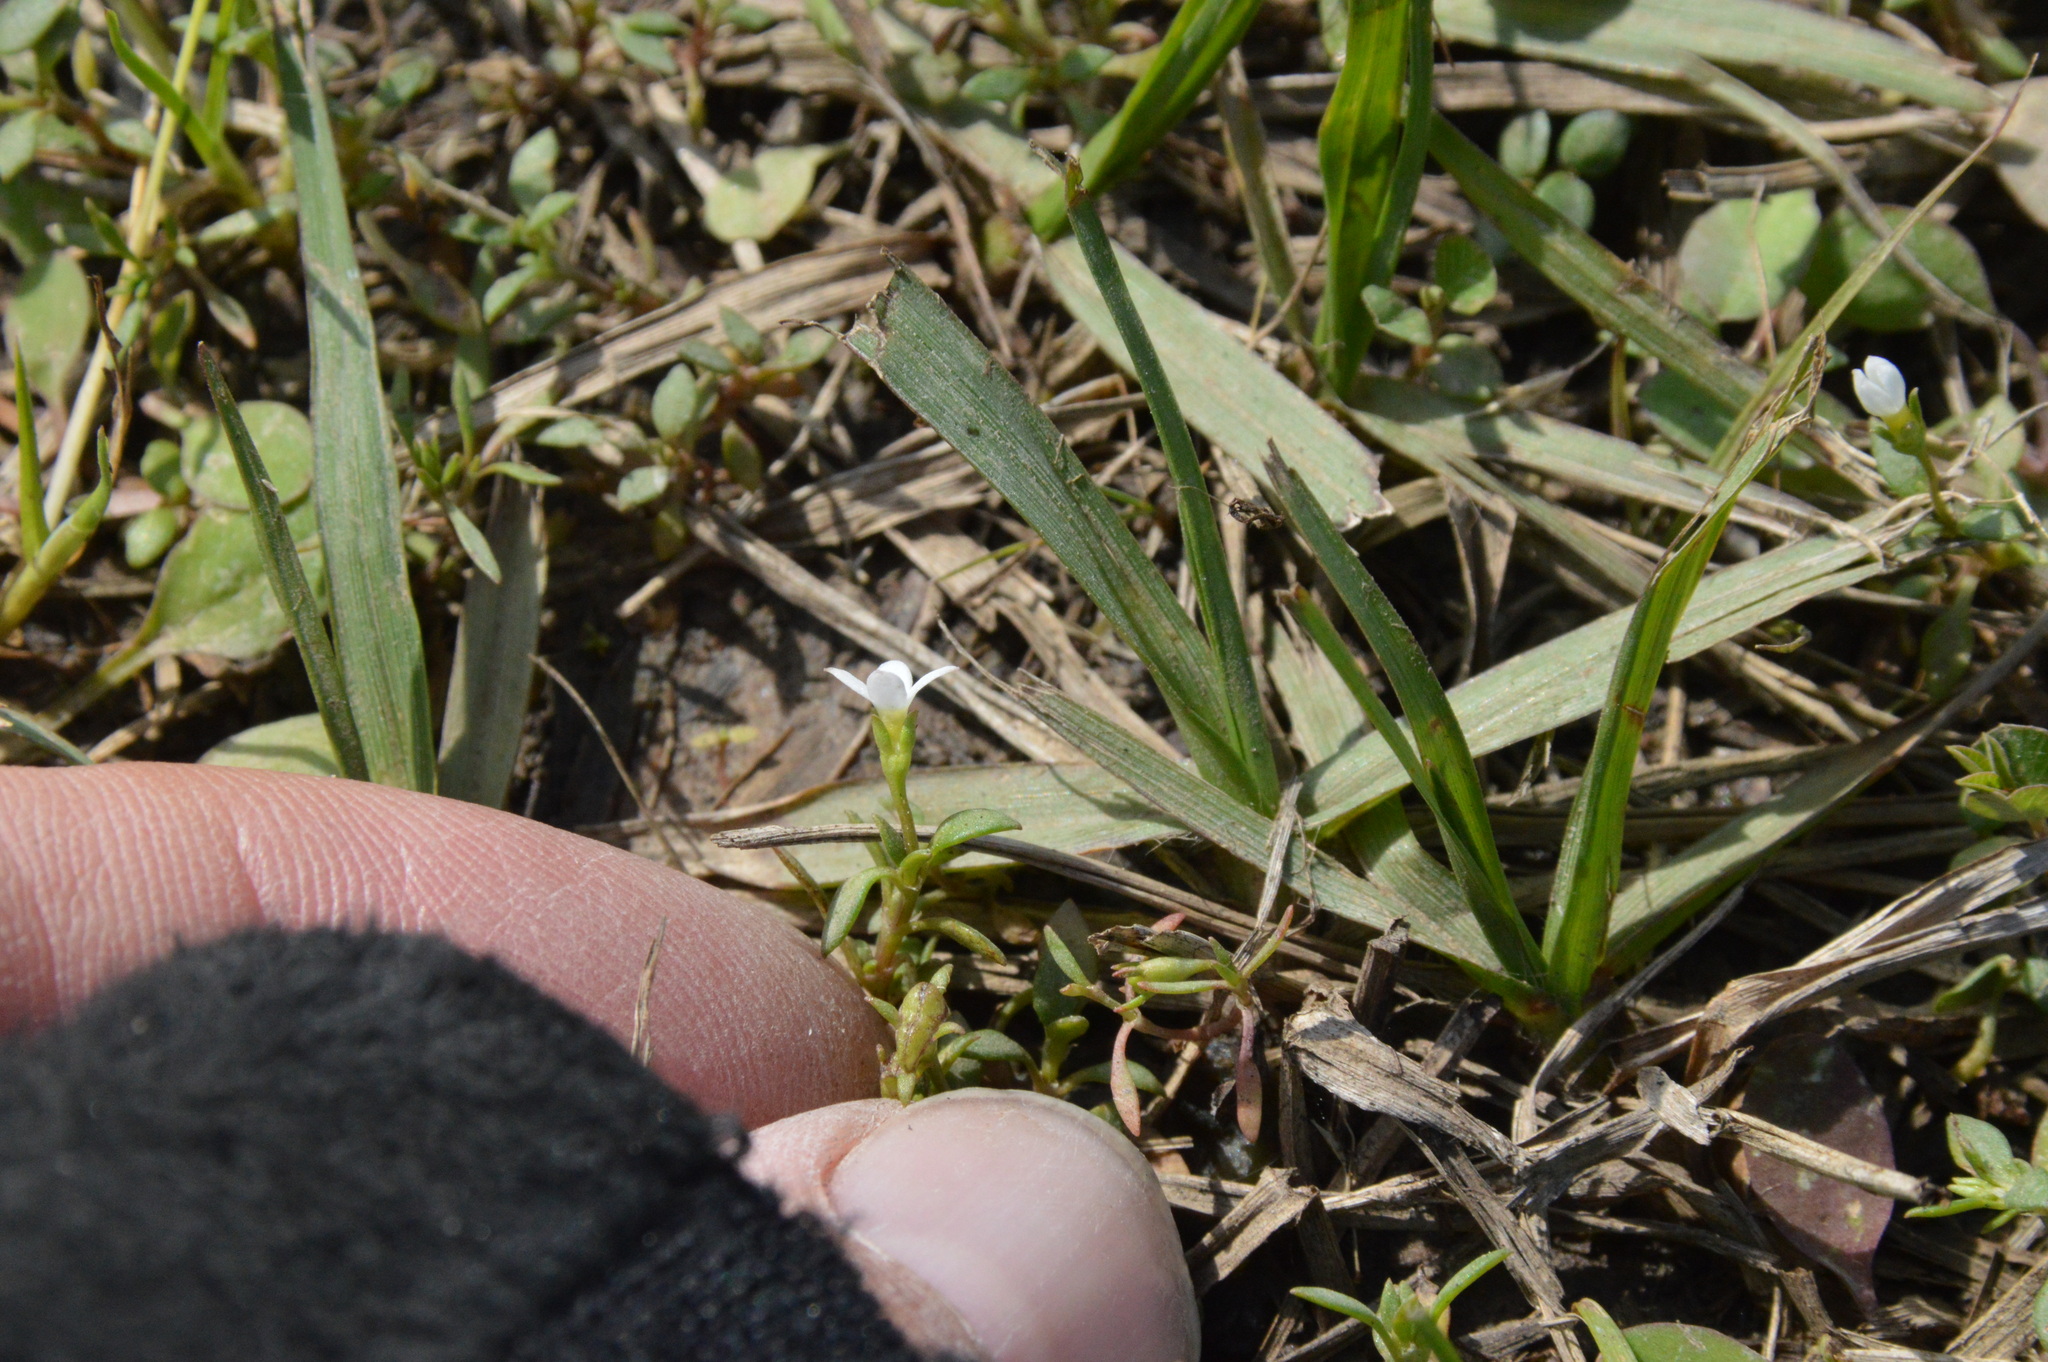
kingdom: Plantae
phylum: Tracheophyta
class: Magnoliopsida
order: Gentianales
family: Rubiaceae
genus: Houstonia
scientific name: Houstonia micrantha
